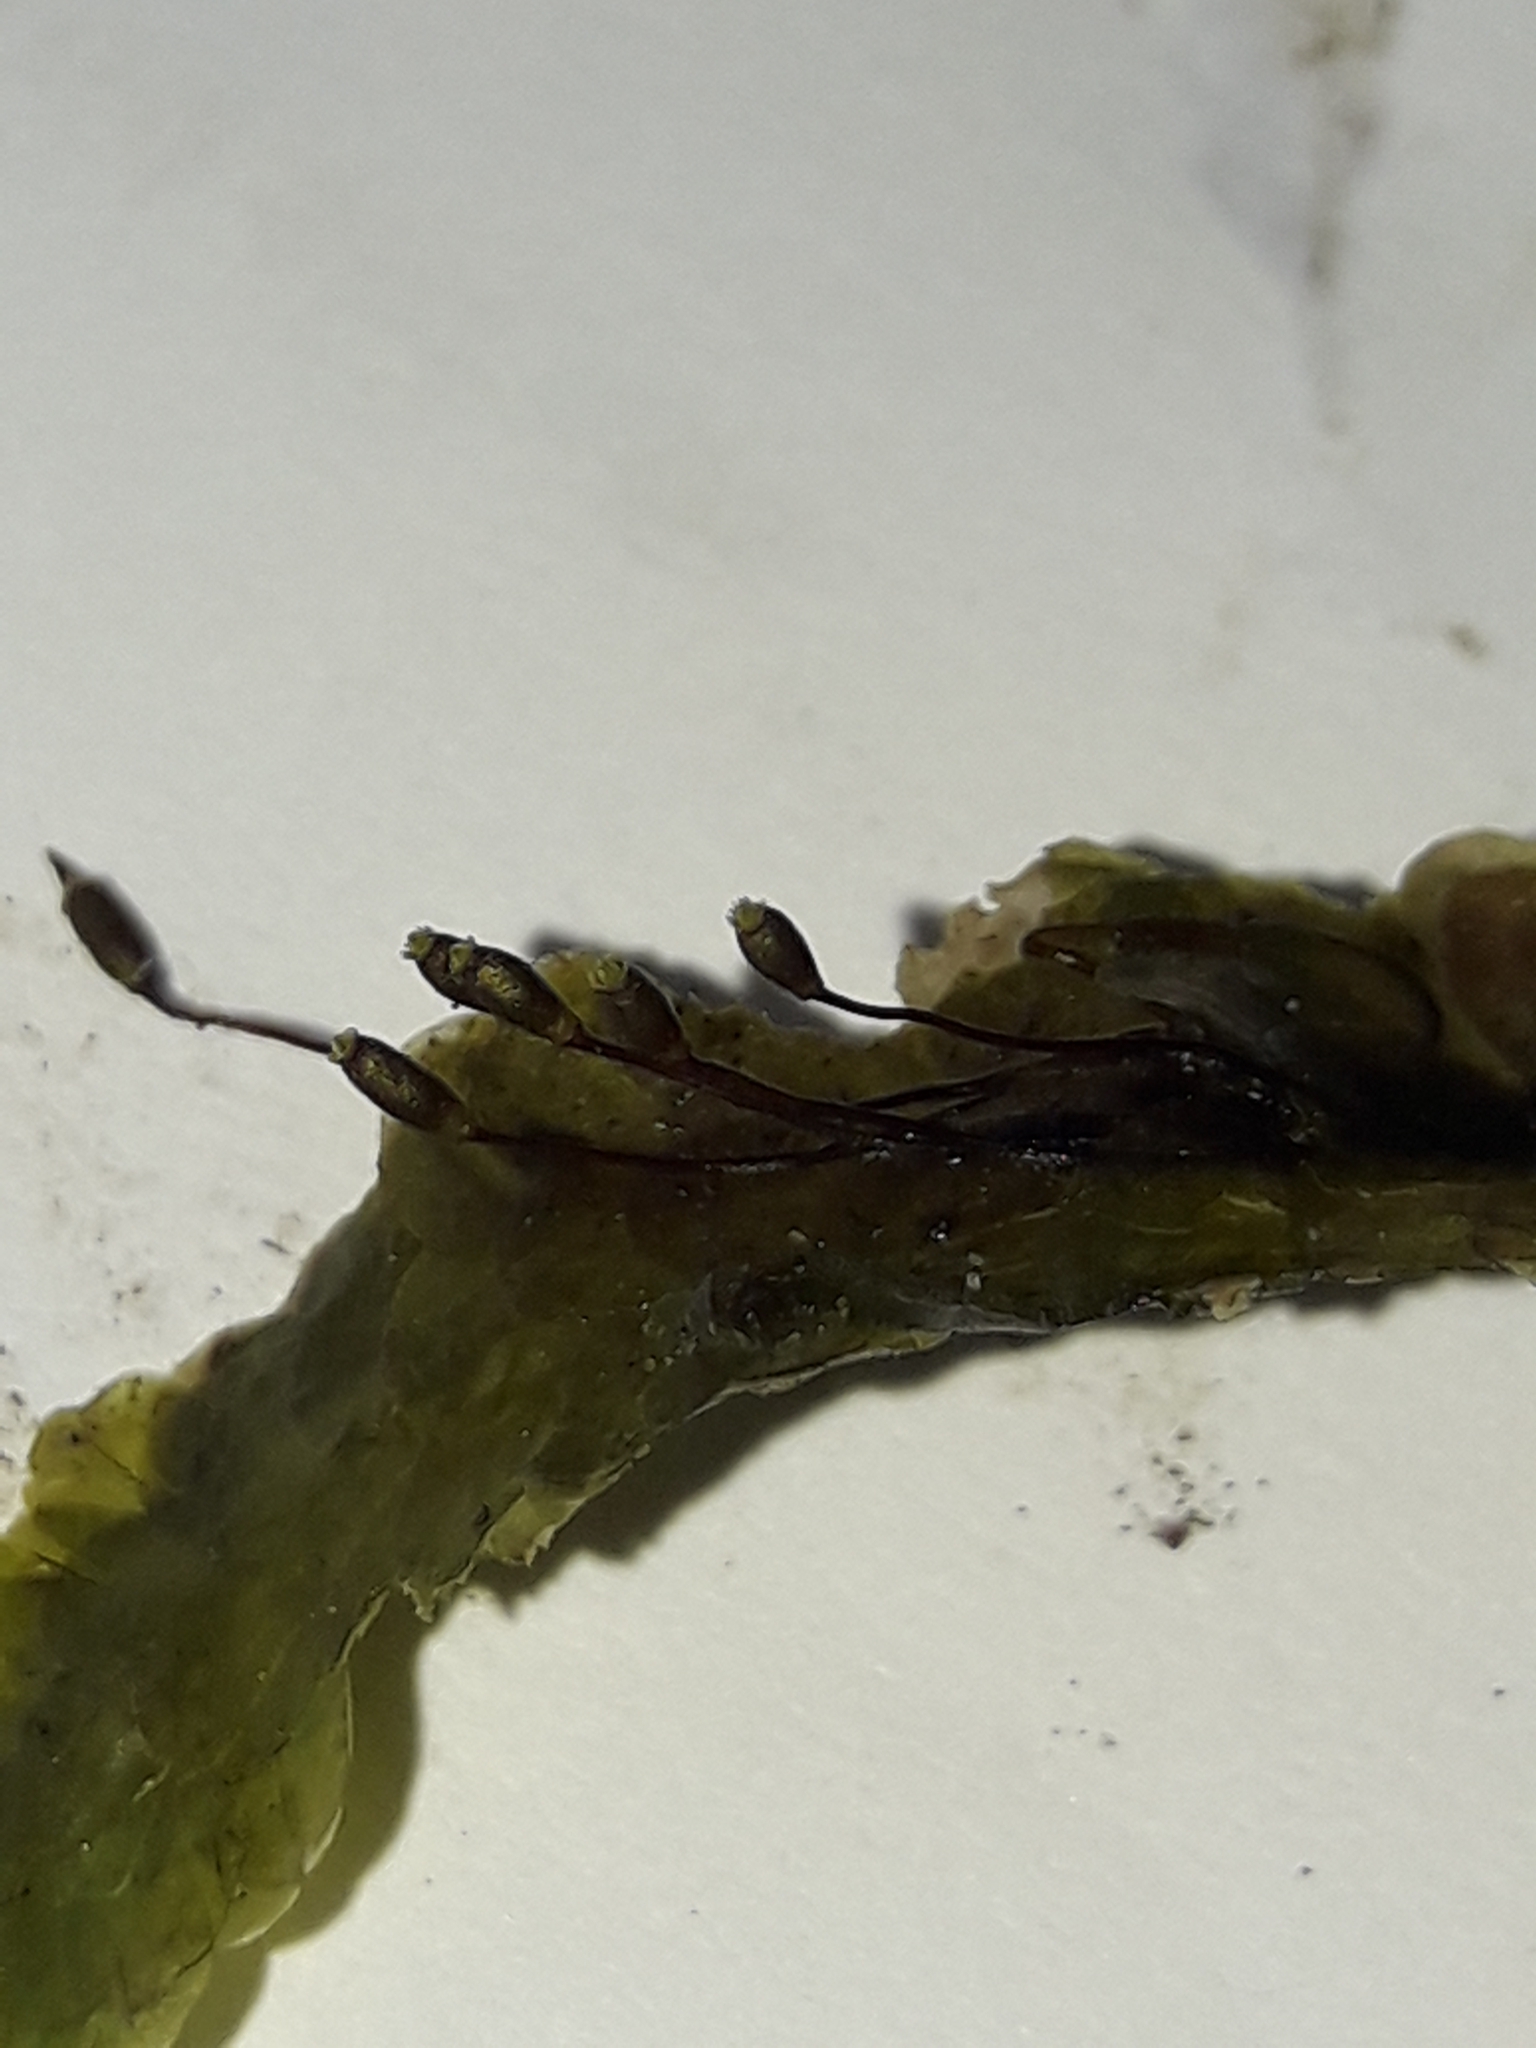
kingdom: Plantae
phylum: Bryophyta
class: Bryopsida
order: Hookeriales
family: Daltoniaceae
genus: Distichophyllum
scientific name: Distichophyllum microcarpon
